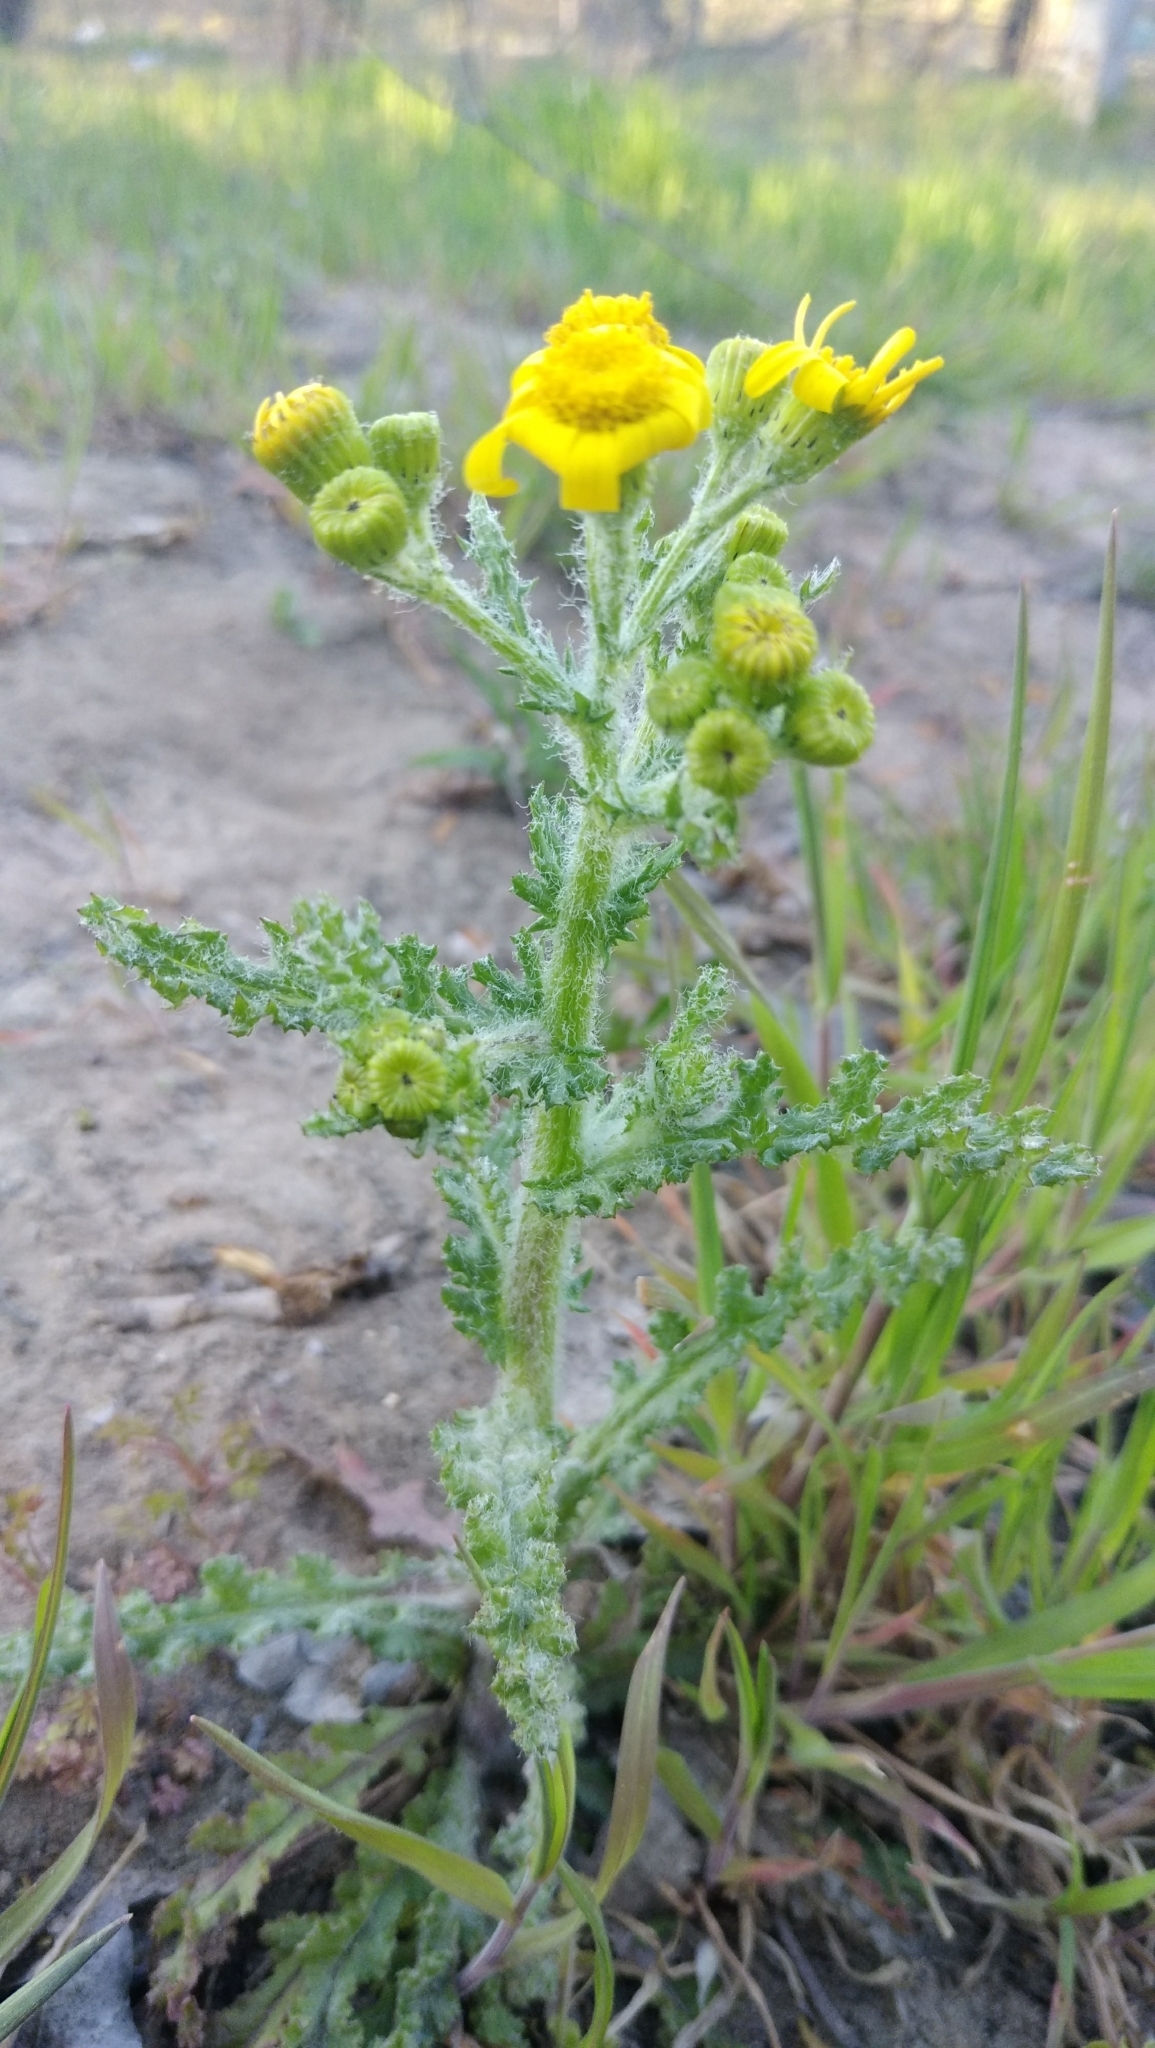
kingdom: Plantae
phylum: Tracheophyta
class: Magnoliopsida
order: Asterales
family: Asteraceae
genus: Senecio
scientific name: Senecio vernalis
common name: Eastern groundsel
